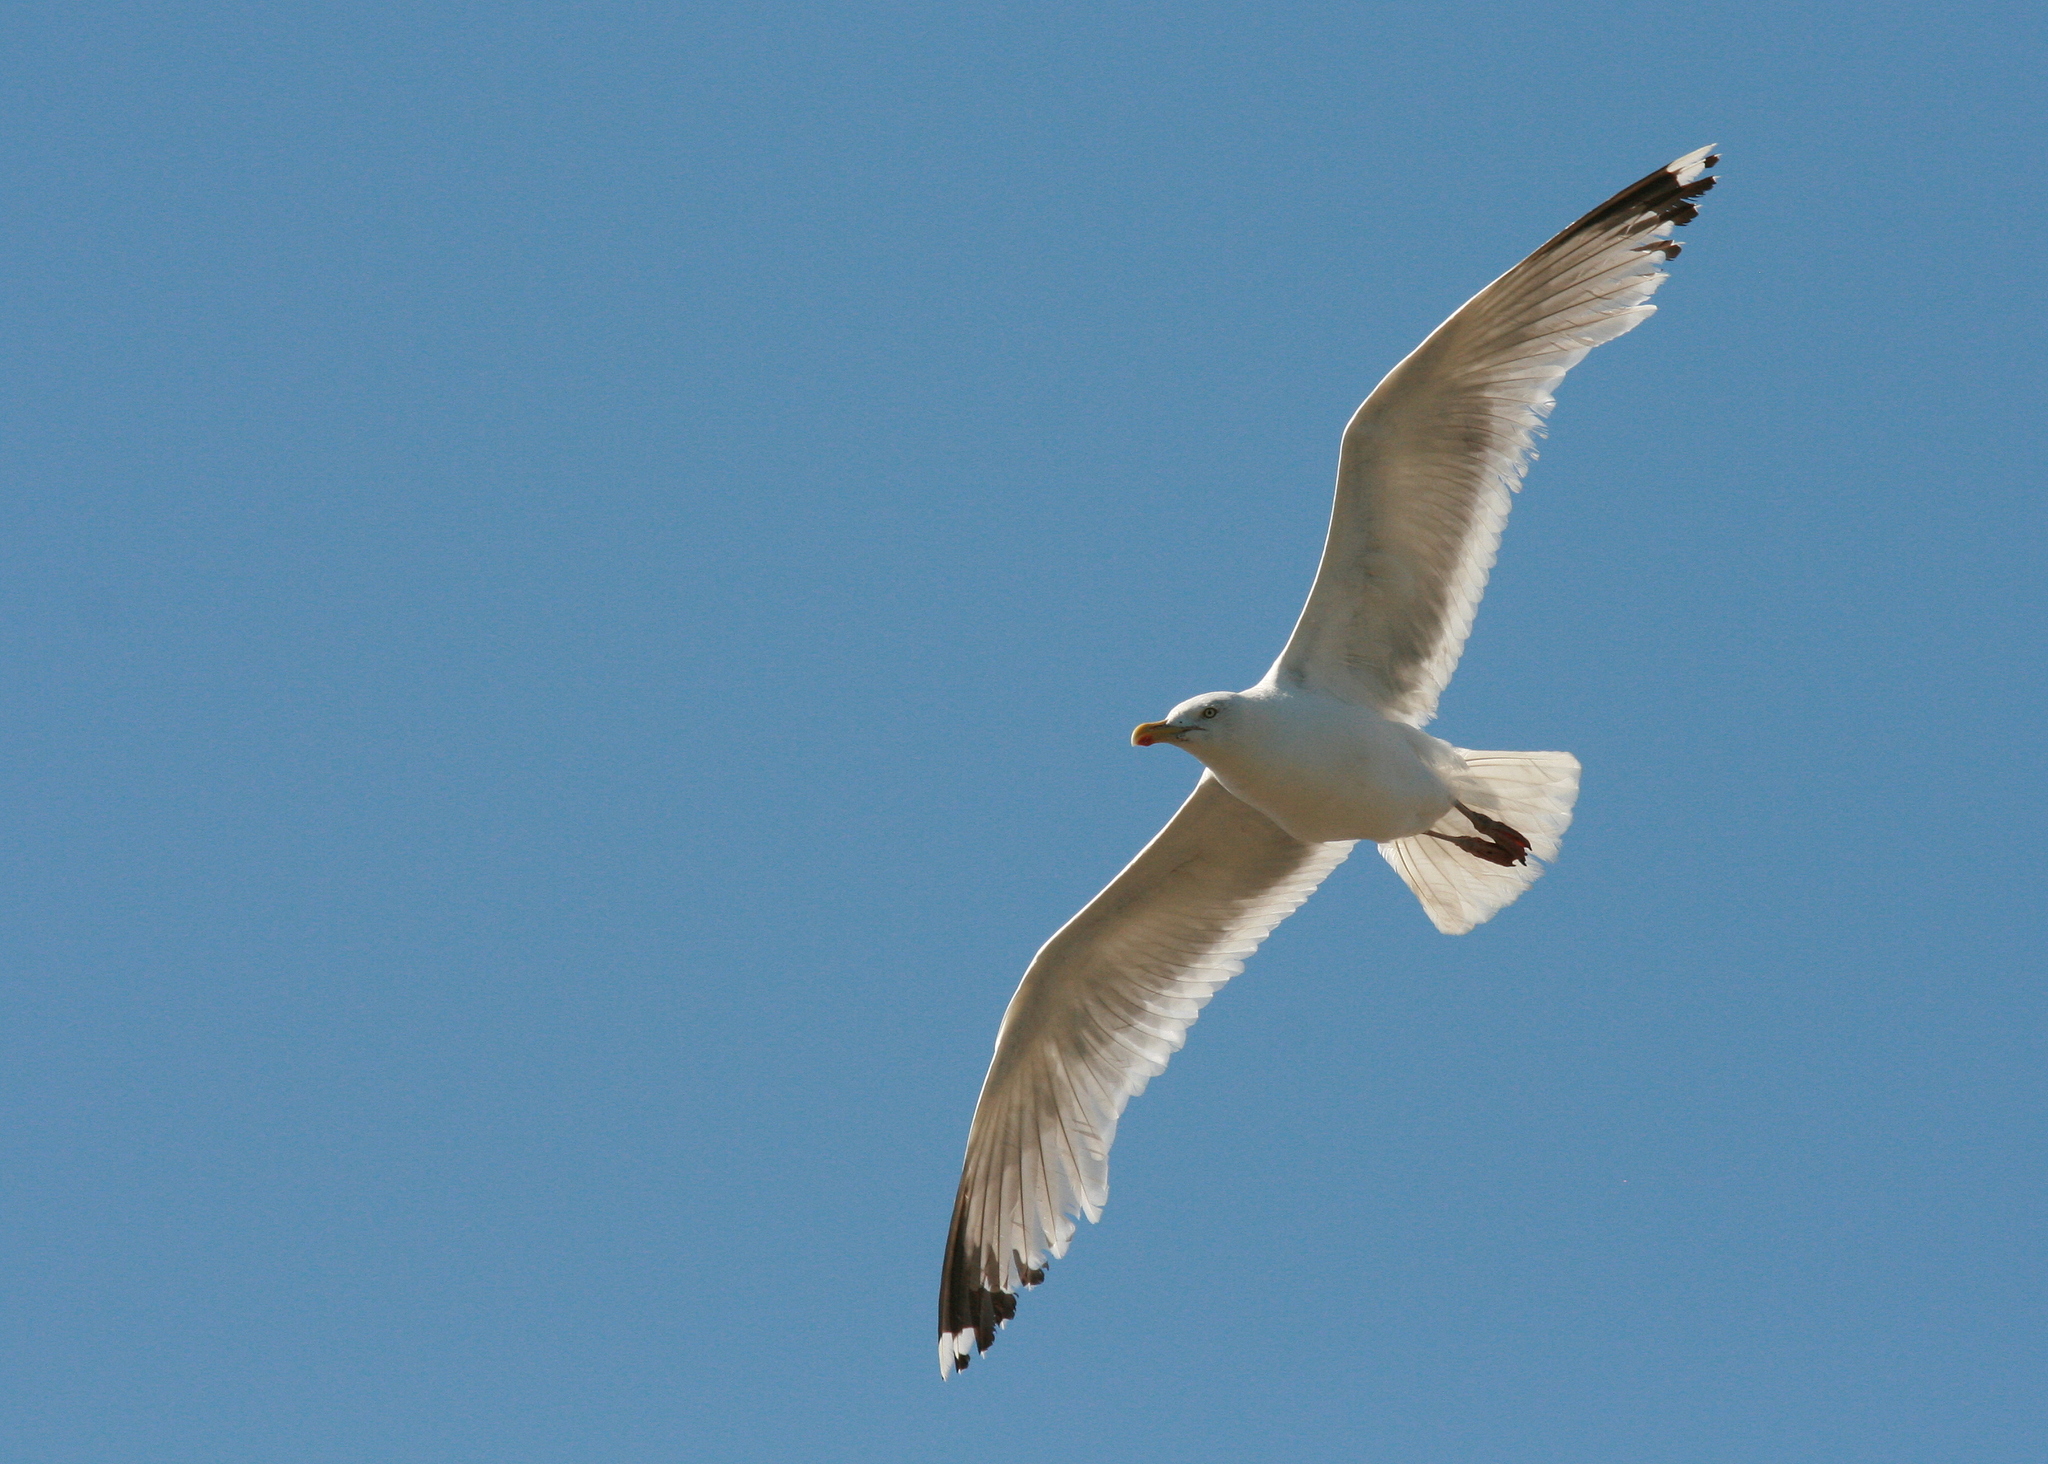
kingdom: Animalia
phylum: Chordata
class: Aves
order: Charadriiformes
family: Laridae
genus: Larus
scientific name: Larus argentatus
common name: Herring gull
